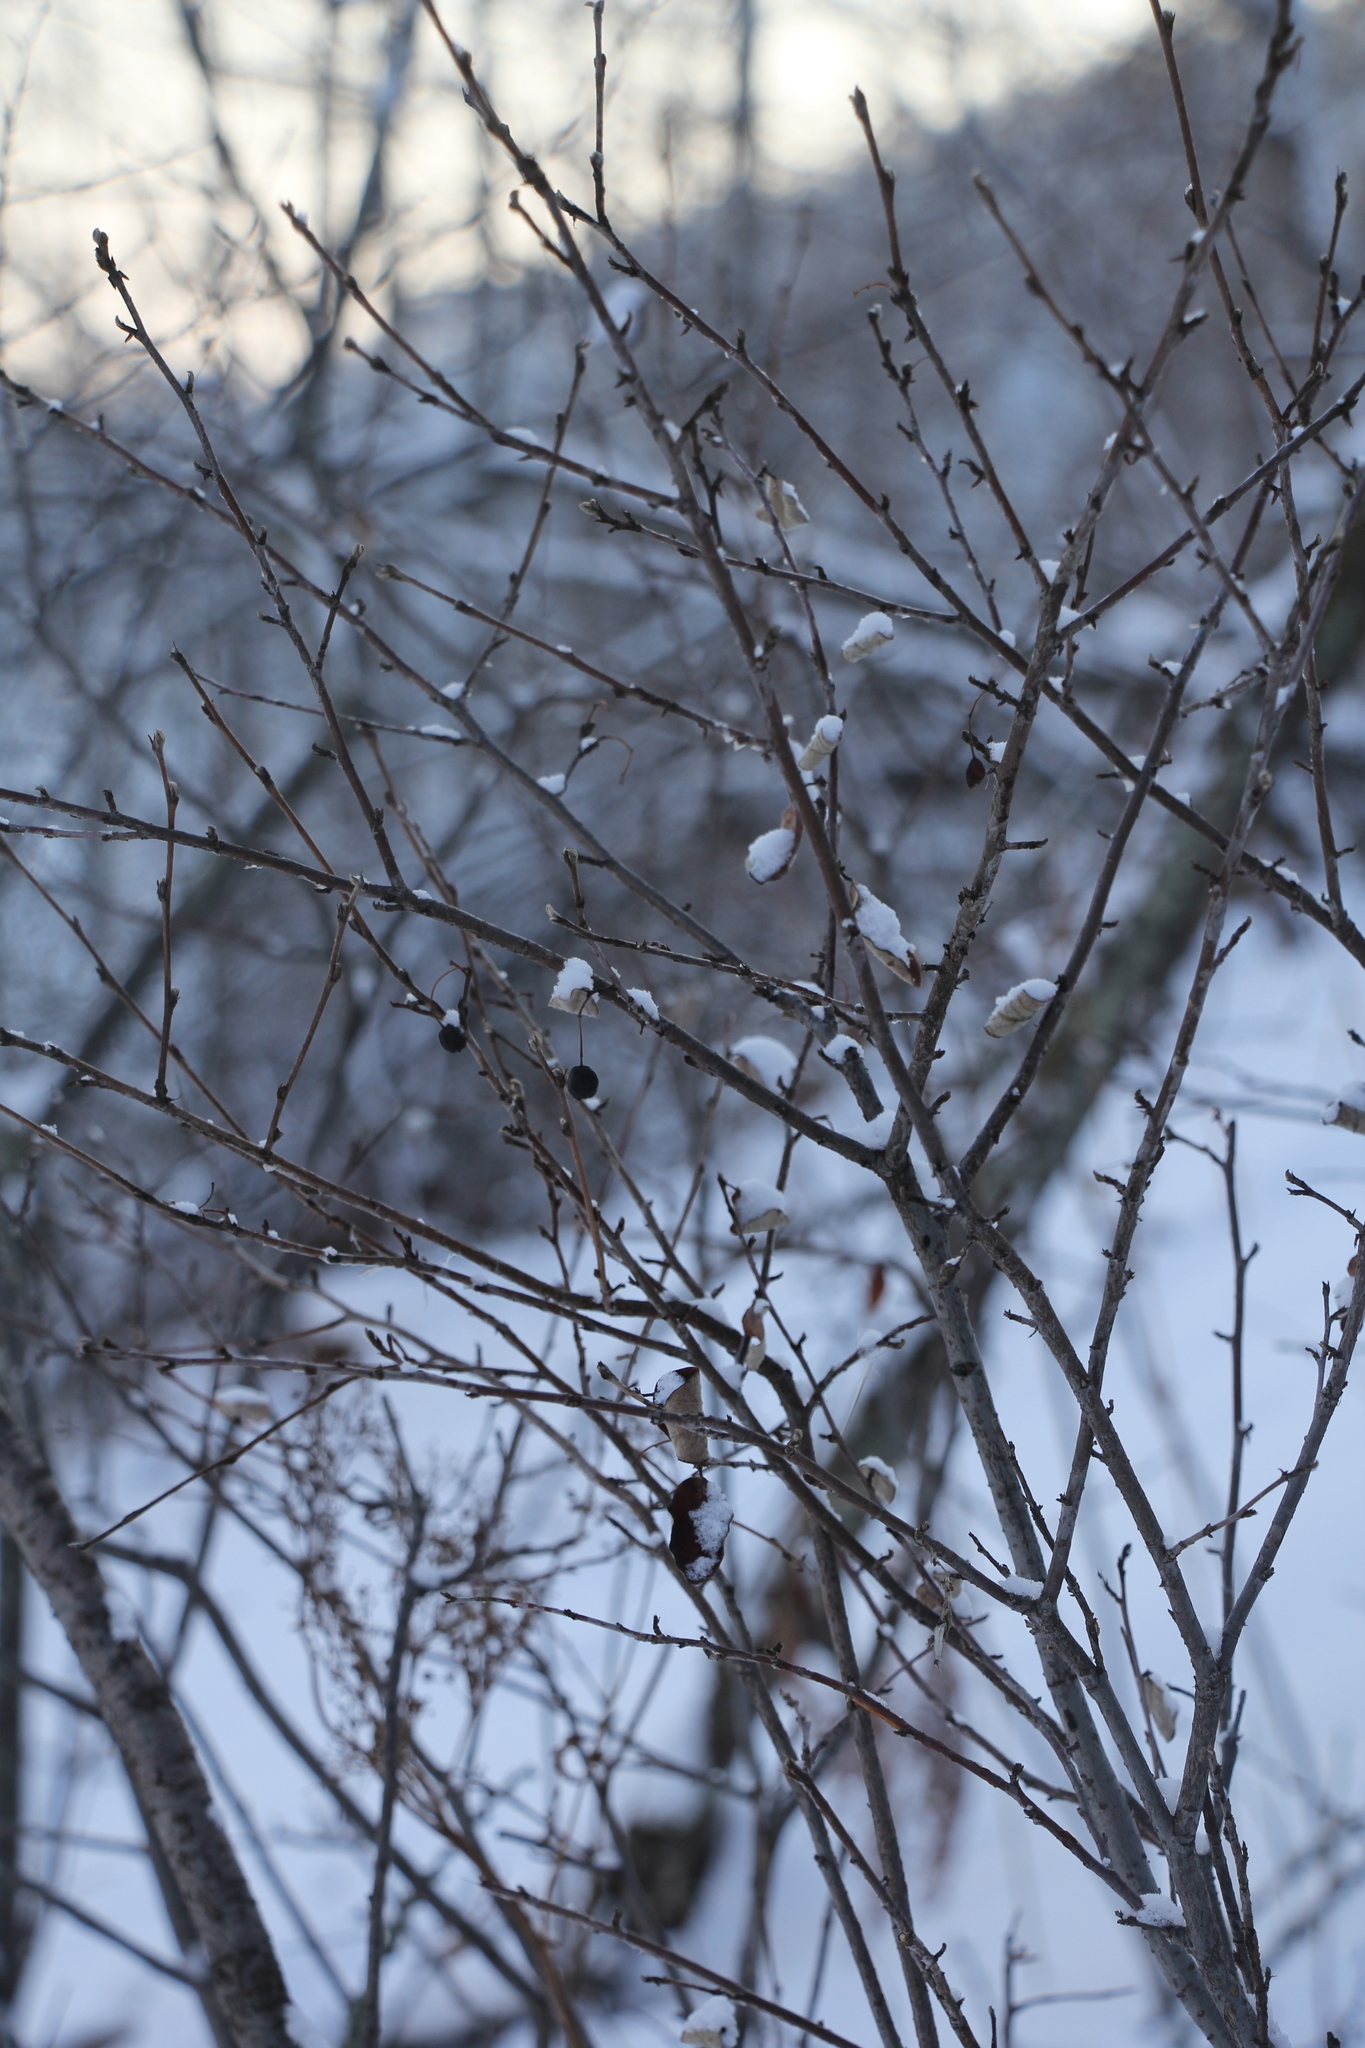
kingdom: Plantae
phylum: Tracheophyta
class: Magnoliopsida
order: Rosales
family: Rosaceae
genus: Cotoneaster
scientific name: Cotoneaster melanocarpus
